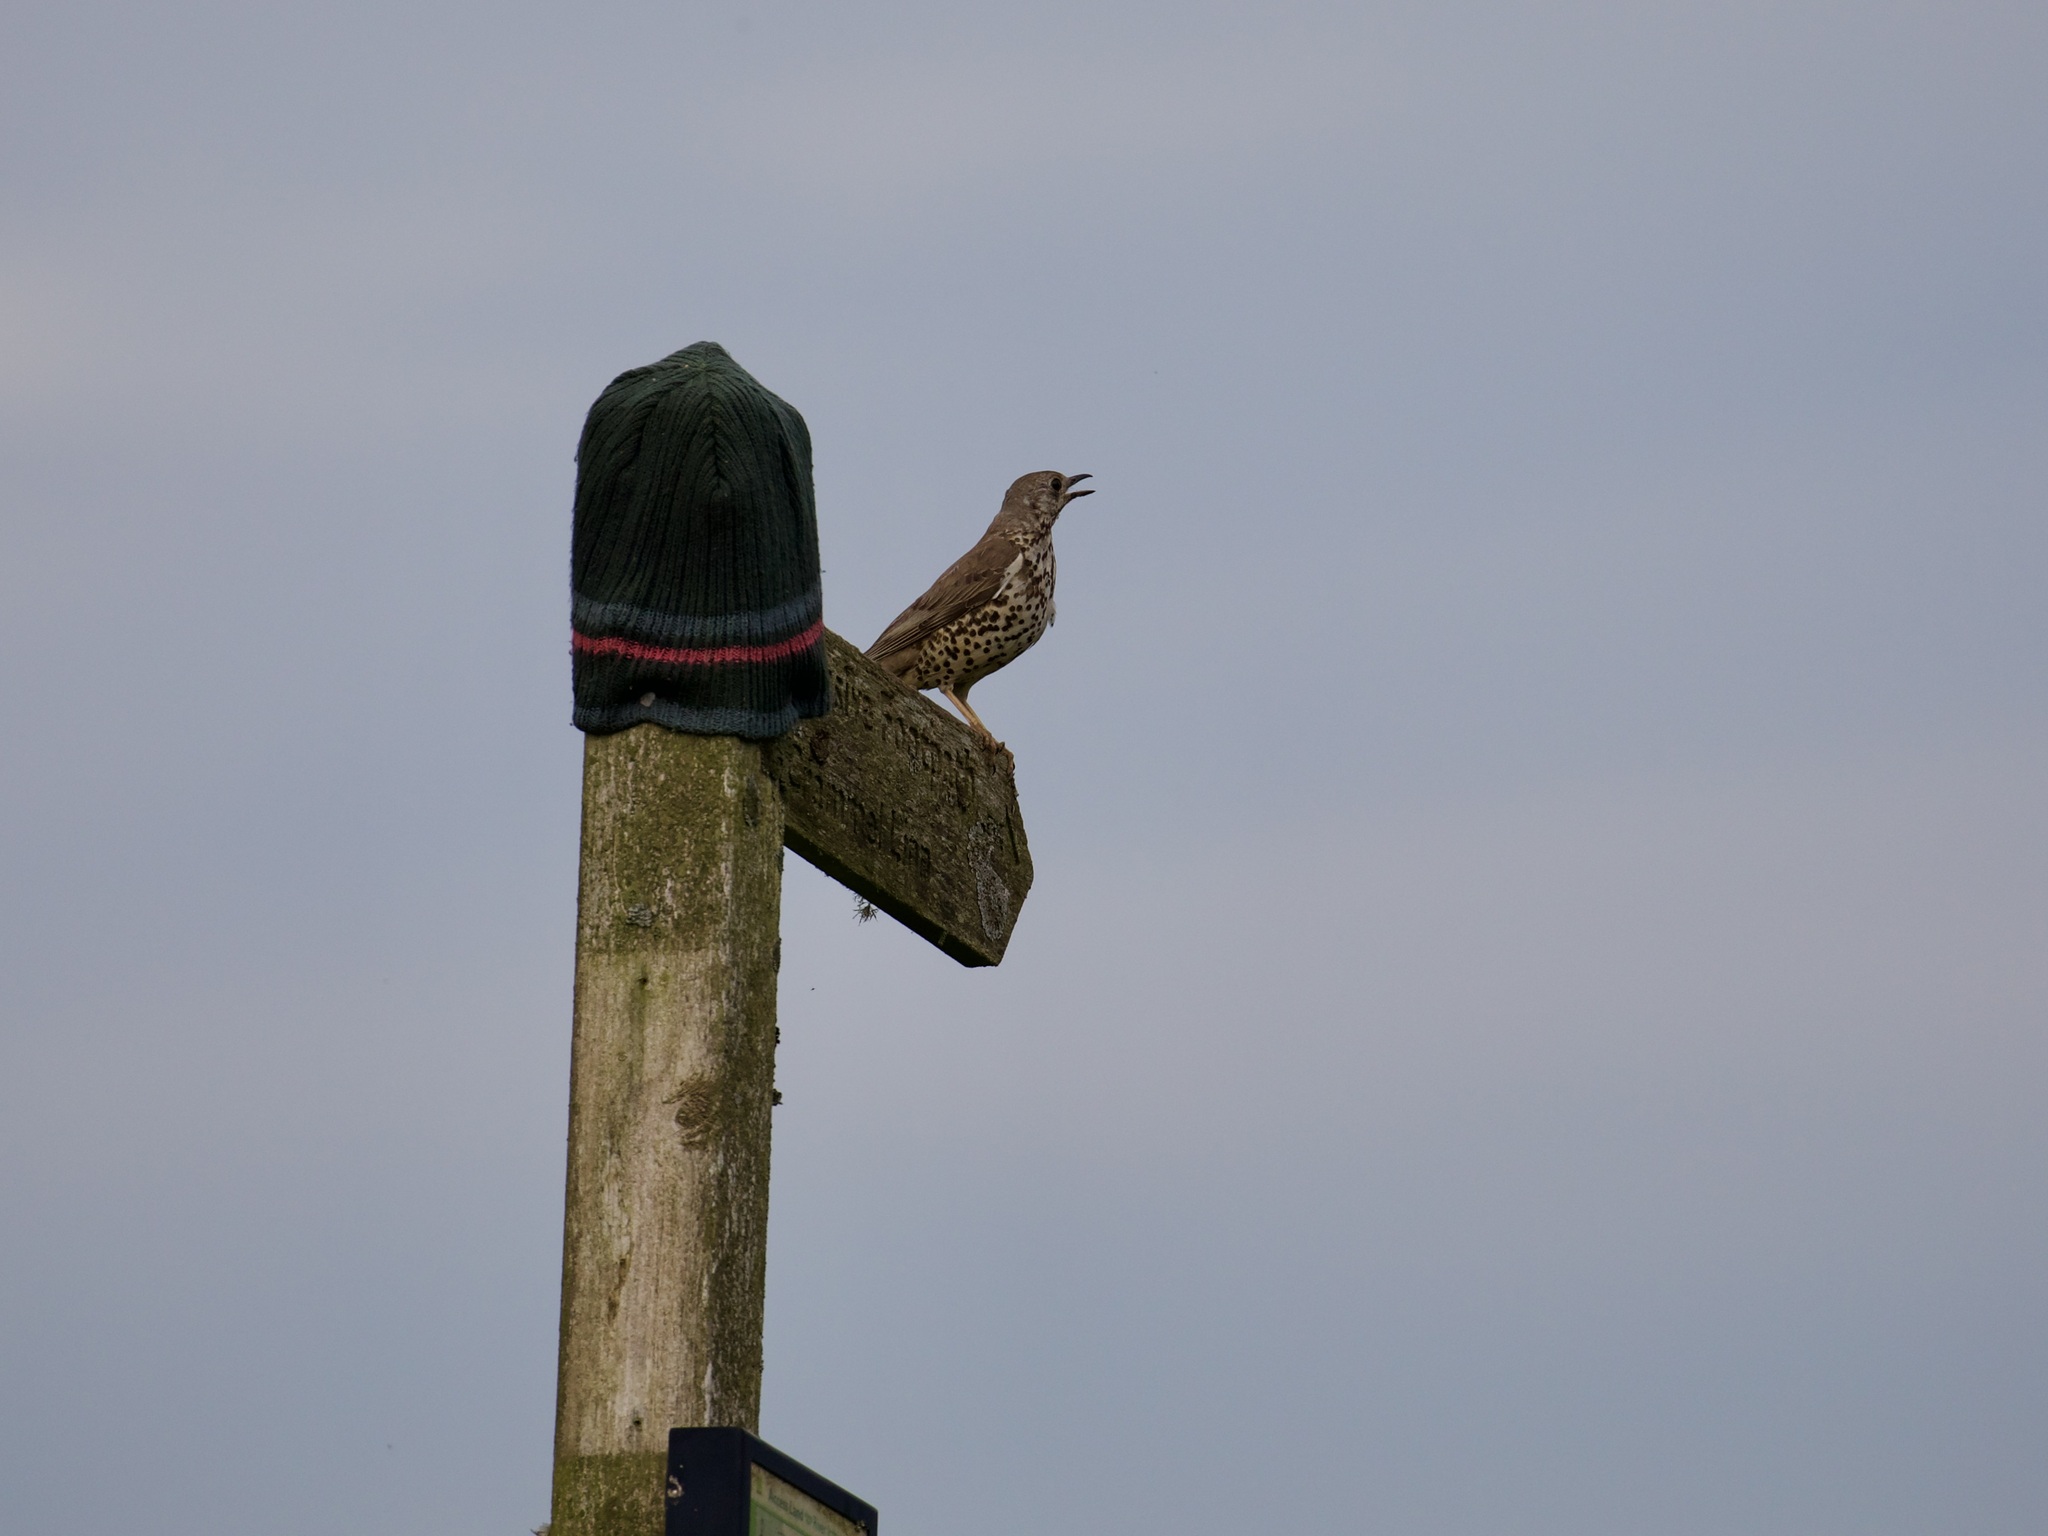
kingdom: Animalia
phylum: Chordata
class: Aves
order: Passeriformes
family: Turdidae
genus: Turdus
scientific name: Turdus viscivorus
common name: Mistle thrush
